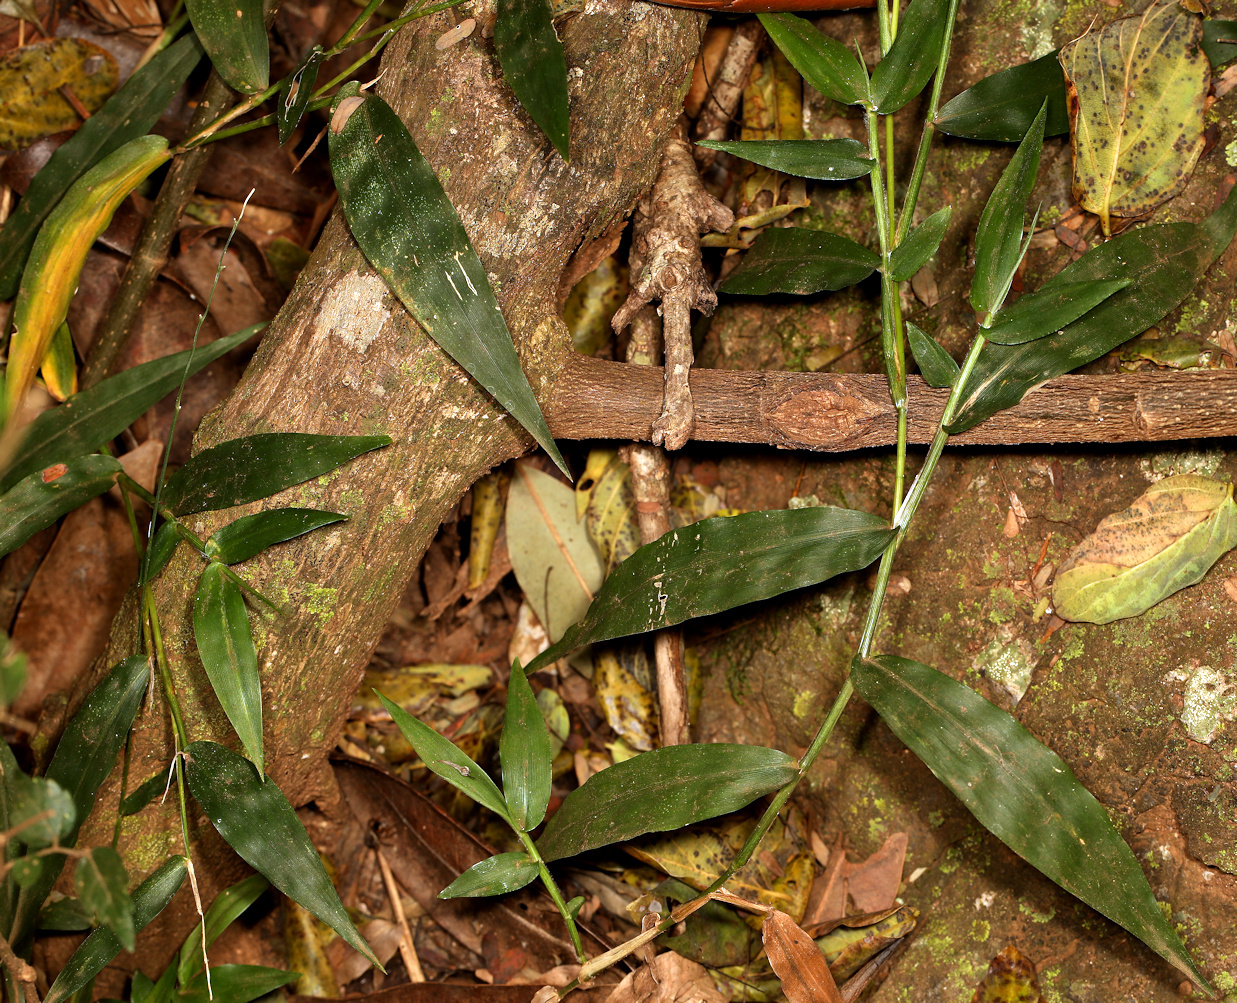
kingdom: Plantae
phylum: Tracheophyta
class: Liliopsida
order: Poales
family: Poaceae
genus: Oplismenus
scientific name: Oplismenus hirtellus
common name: Basketgrass
